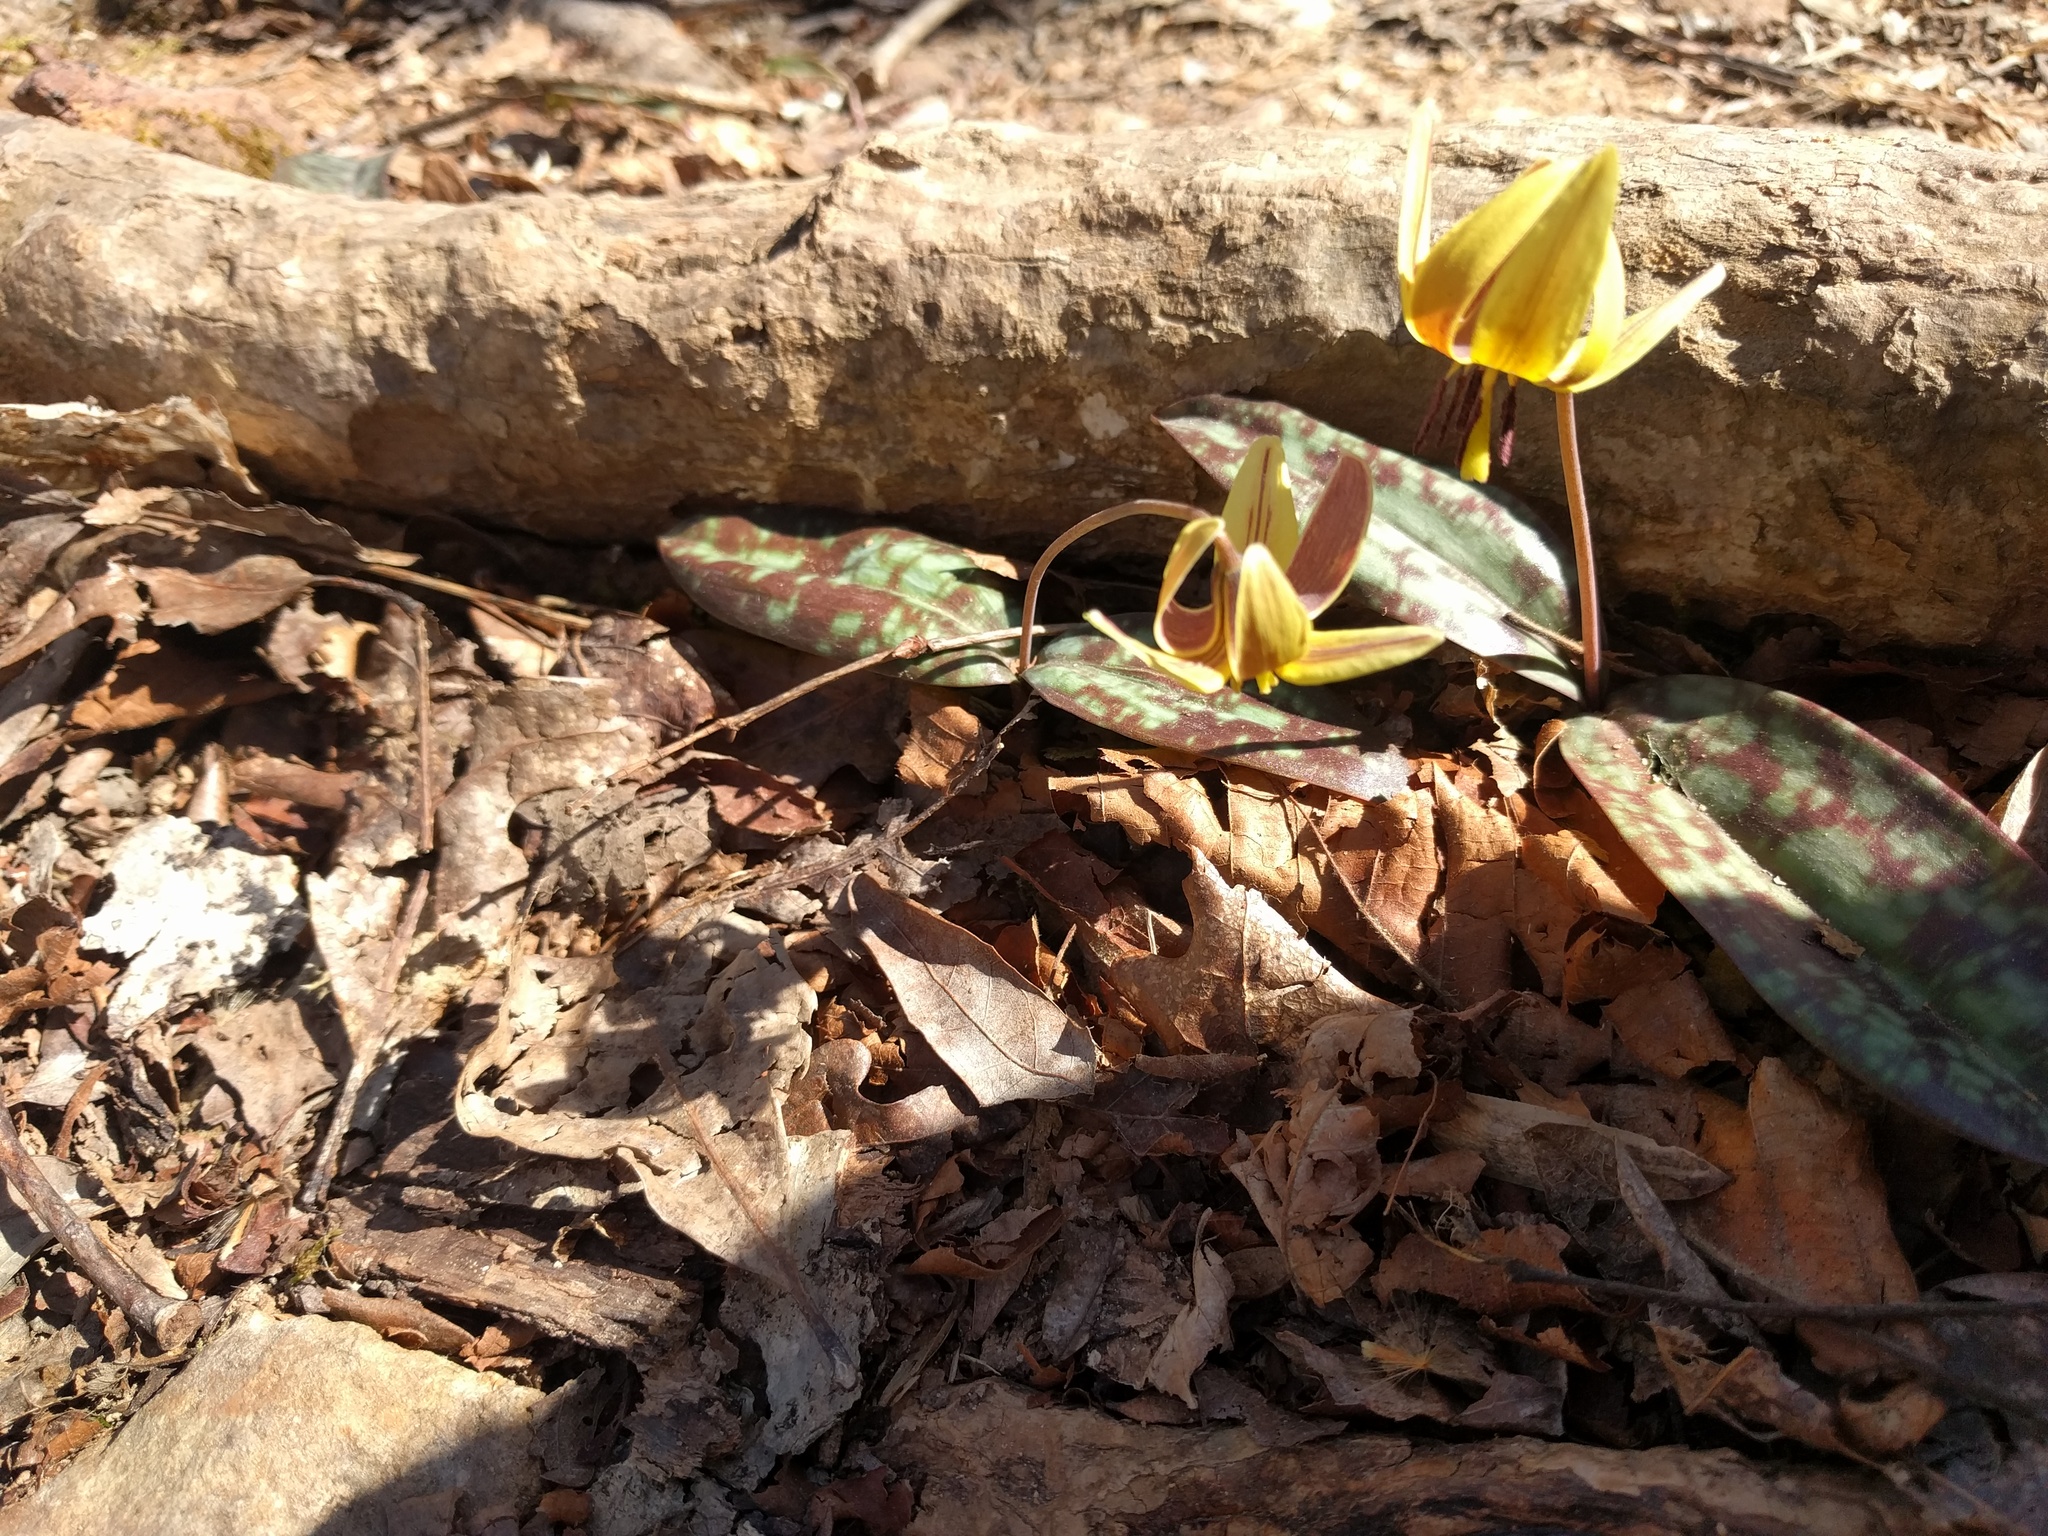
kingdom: Plantae
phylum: Tracheophyta
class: Liliopsida
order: Liliales
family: Liliaceae
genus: Erythronium
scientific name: Erythronium umbilicatum
